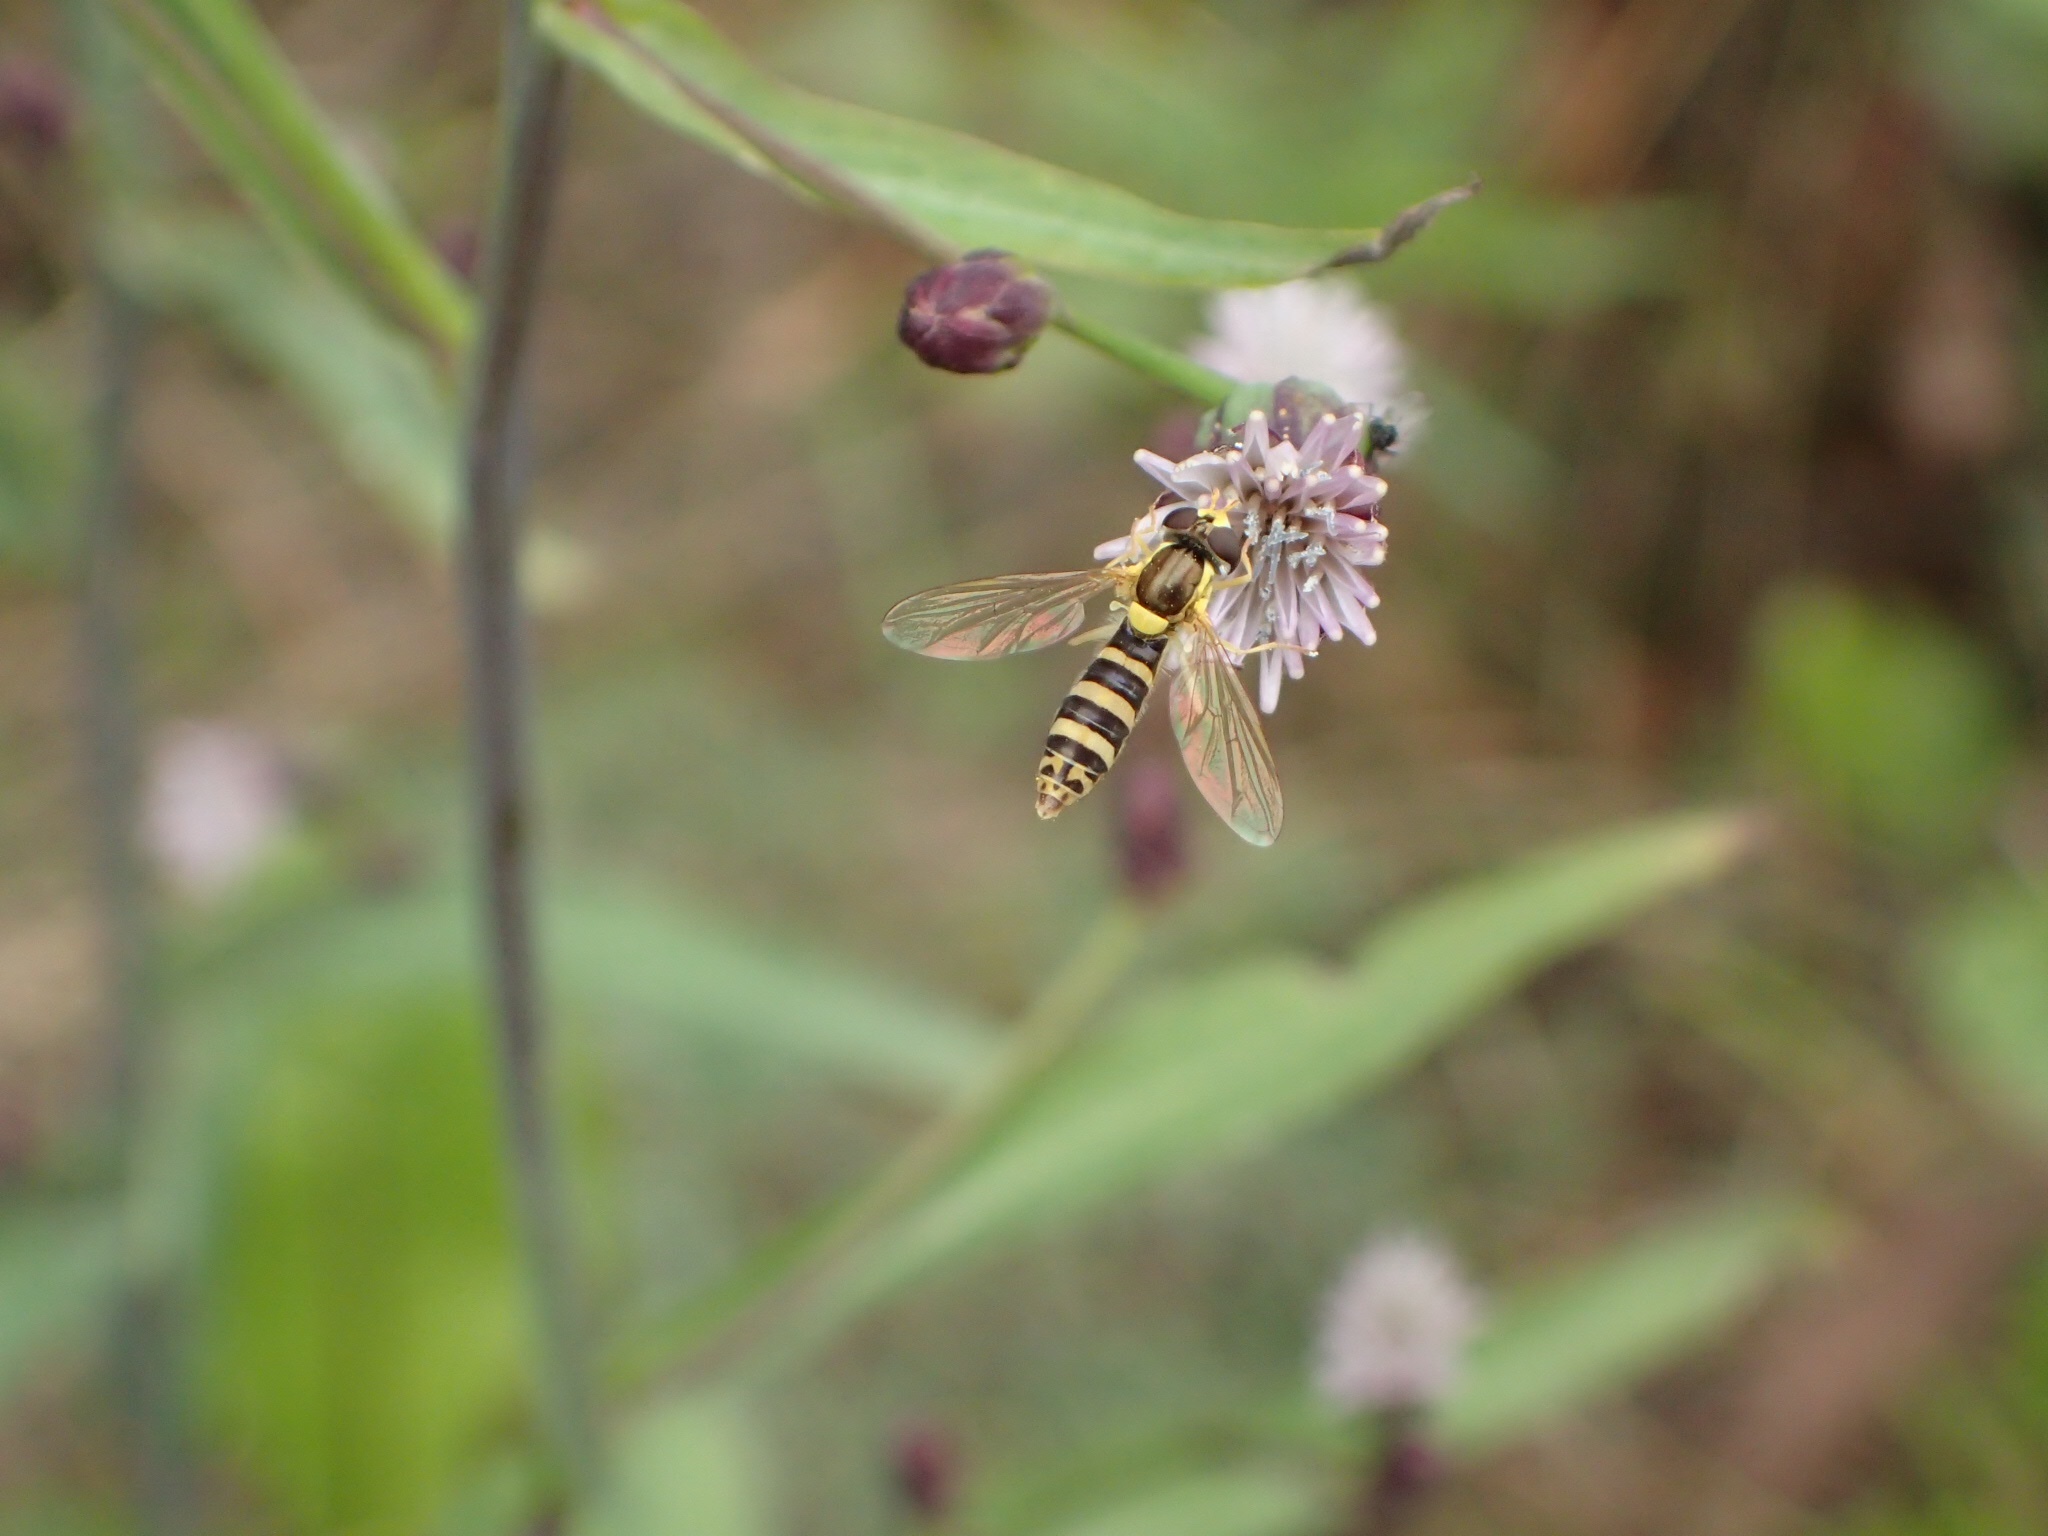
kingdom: Animalia
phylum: Arthropoda
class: Insecta
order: Diptera
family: Syrphidae
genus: Sphaerophoria
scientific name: Sphaerophoria
